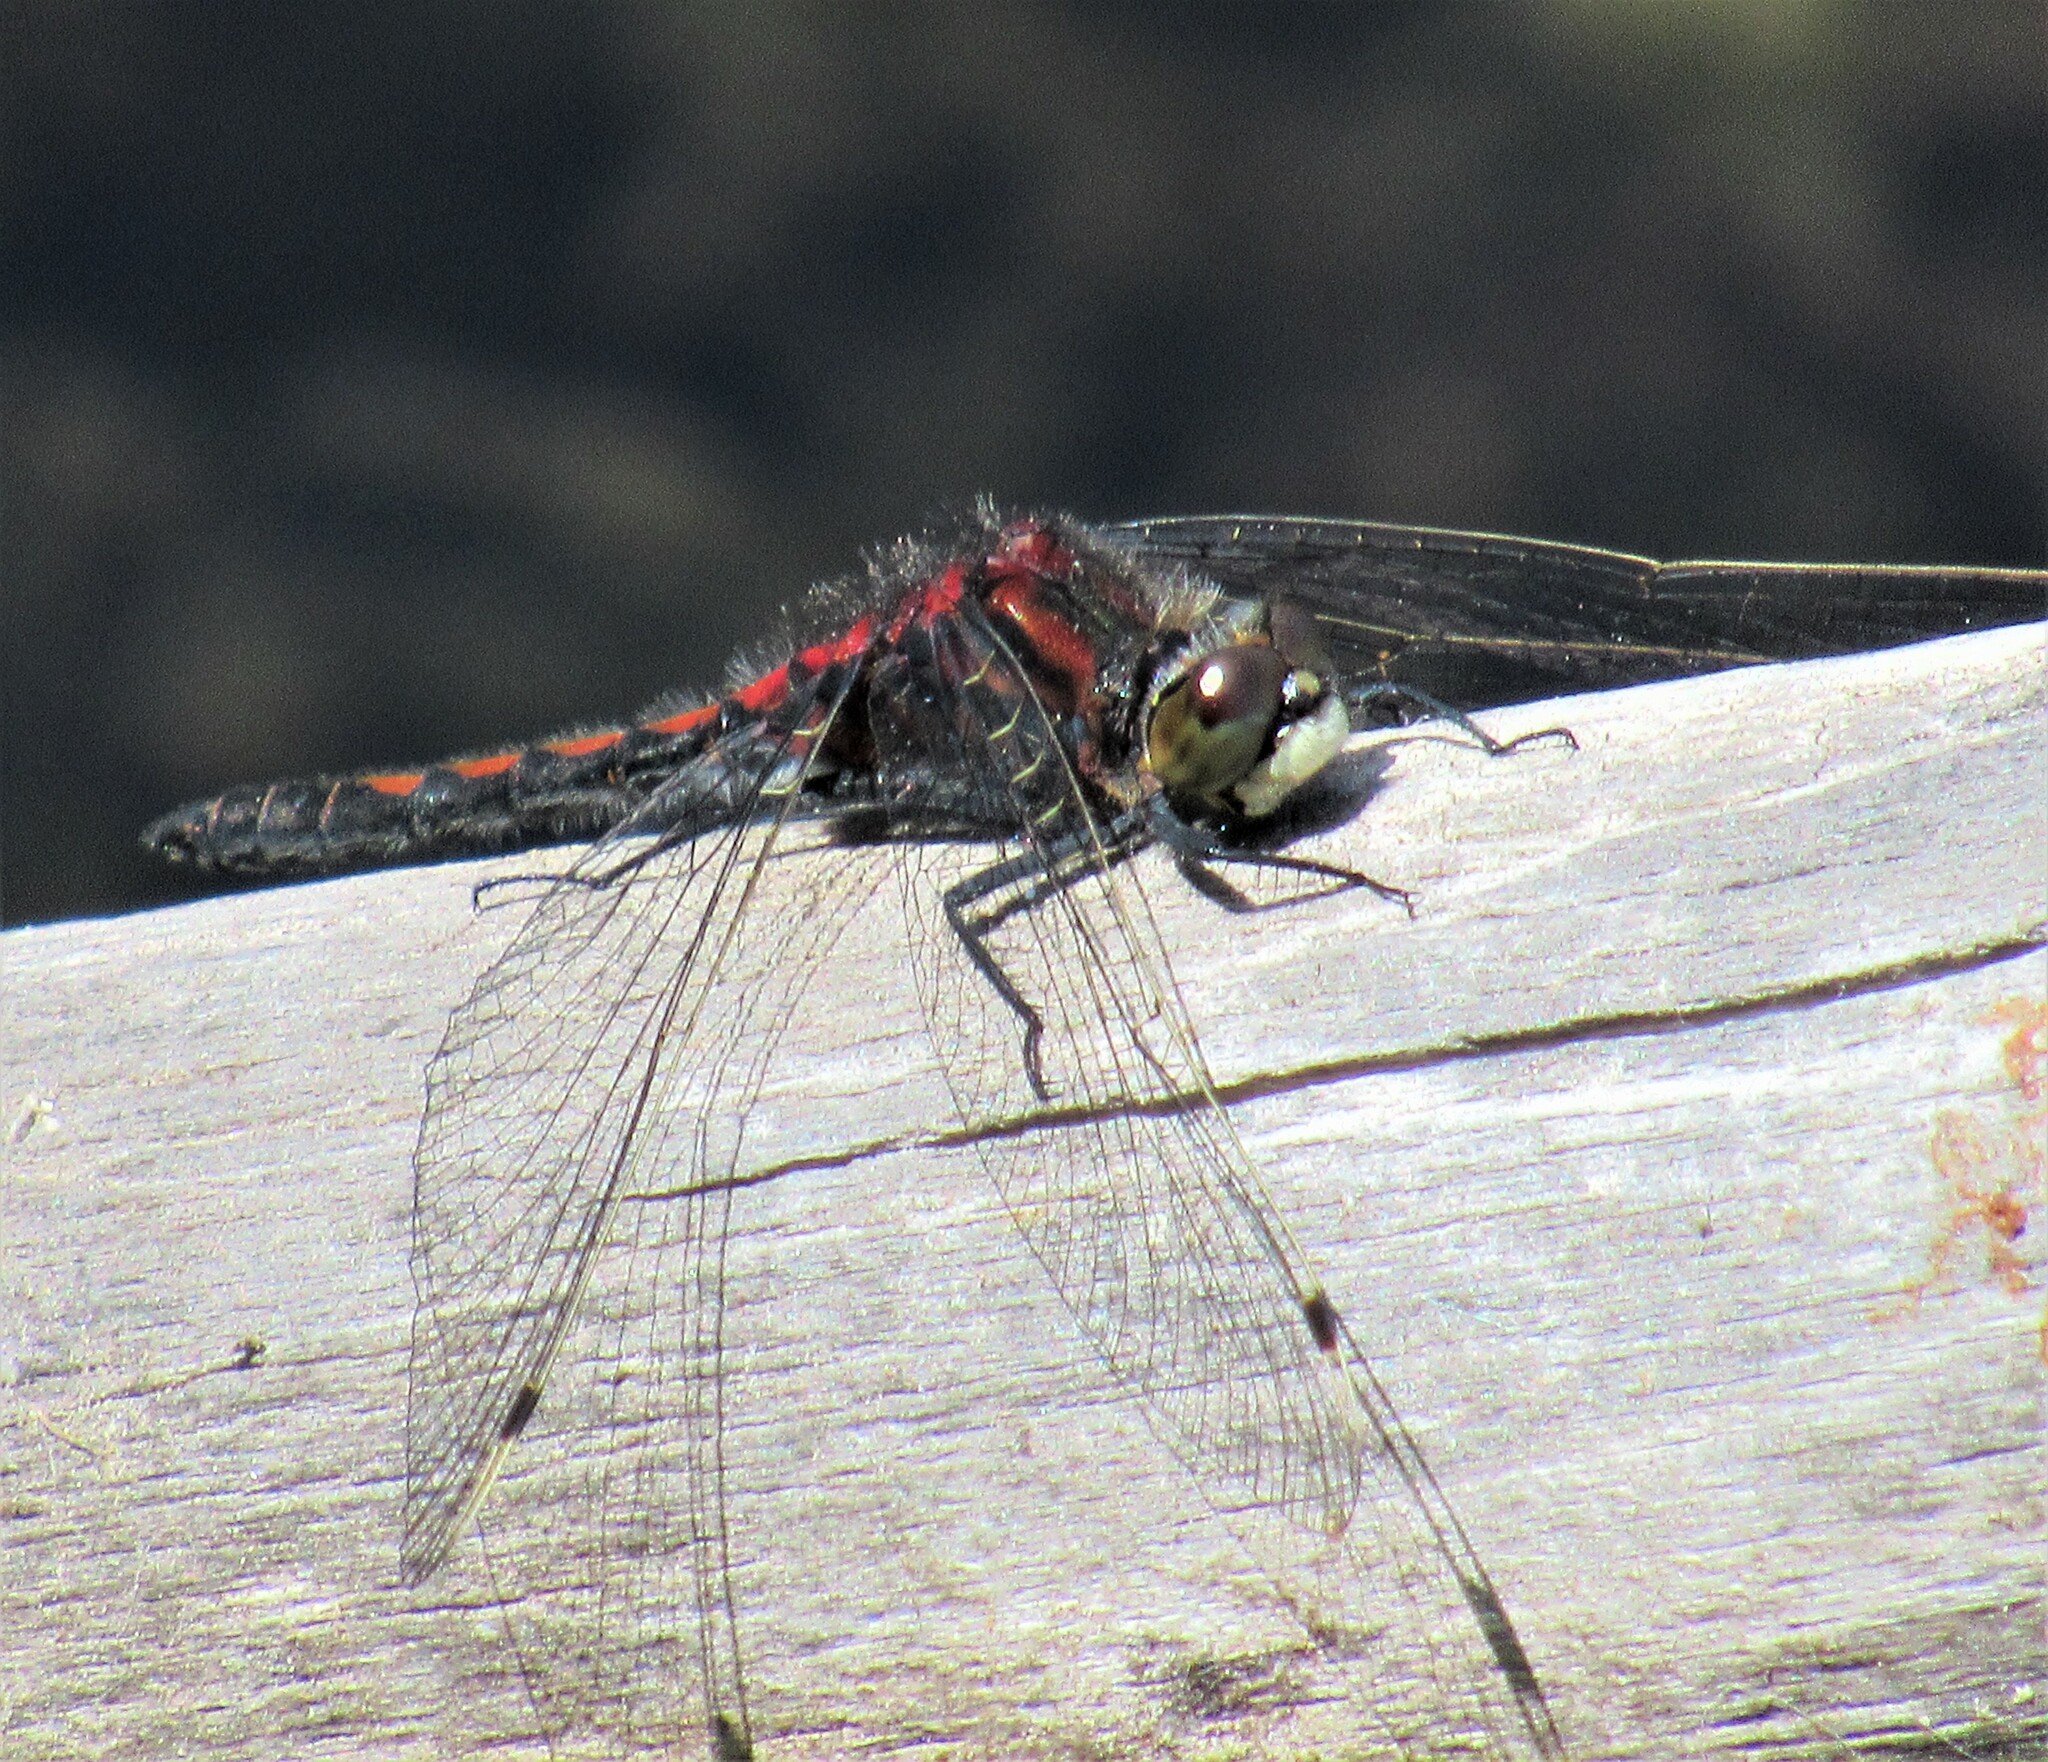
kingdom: Animalia
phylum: Arthropoda
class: Insecta
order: Odonata
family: Libellulidae
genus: Leucorrhinia
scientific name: Leucorrhinia hudsonica
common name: Hudsonian whiteface
